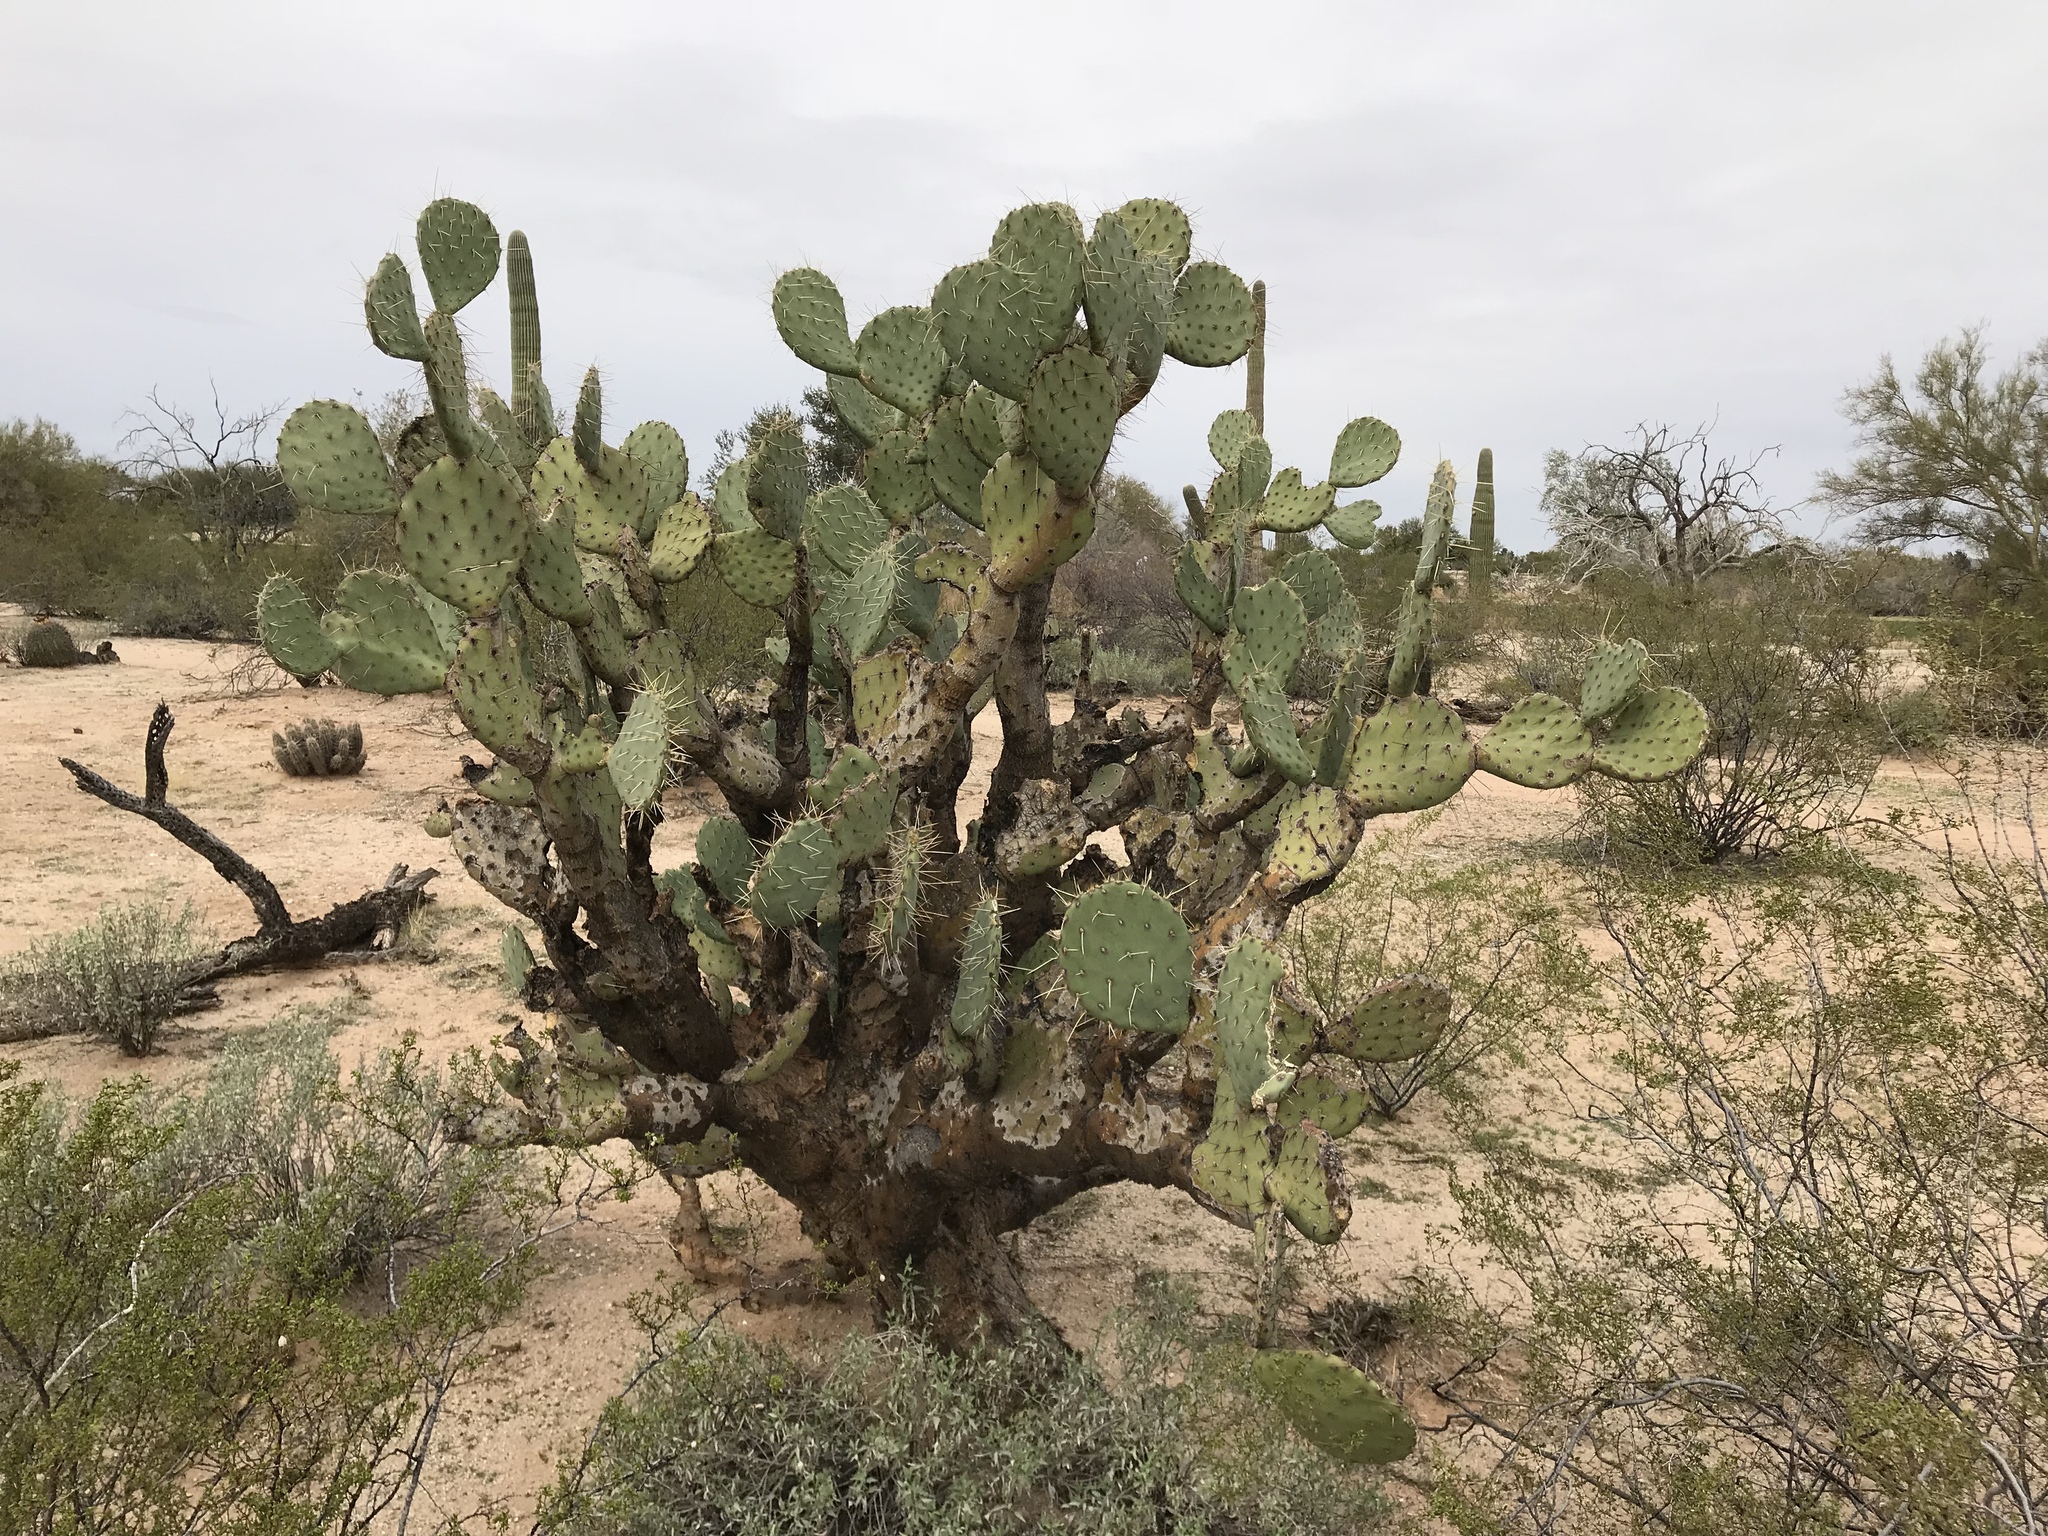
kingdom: Plantae
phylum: Tracheophyta
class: Magnoliopsida
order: Caryophyllales
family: Cactaceae
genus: Opuntia
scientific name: Opuntia engelmannii
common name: Cactus-apple
